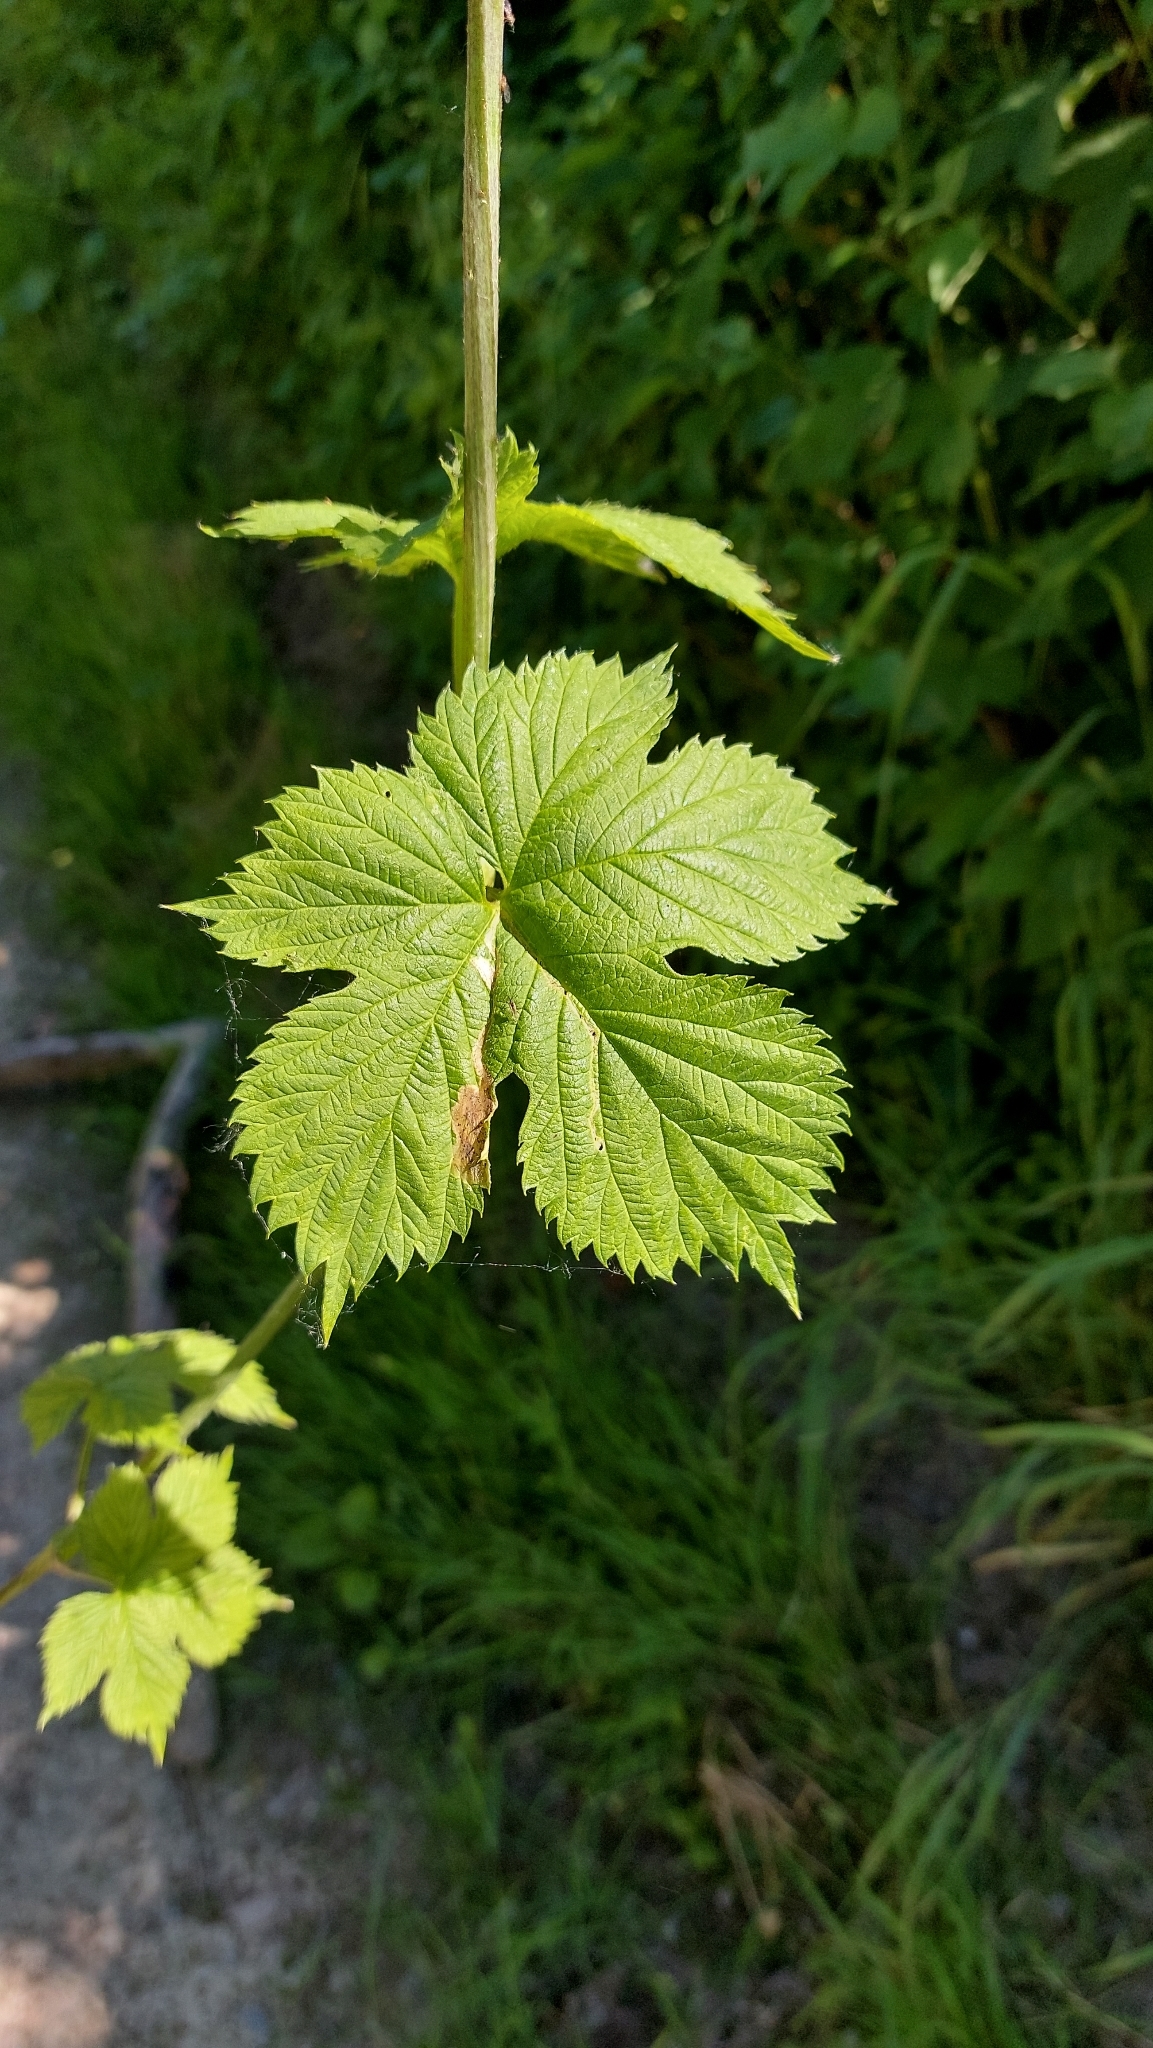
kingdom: Plantae
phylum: Tracheophyta
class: Magnoliopsida
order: Rosales
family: Cannabaceae
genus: Humulus
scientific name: Humulus lupulus
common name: Hop
